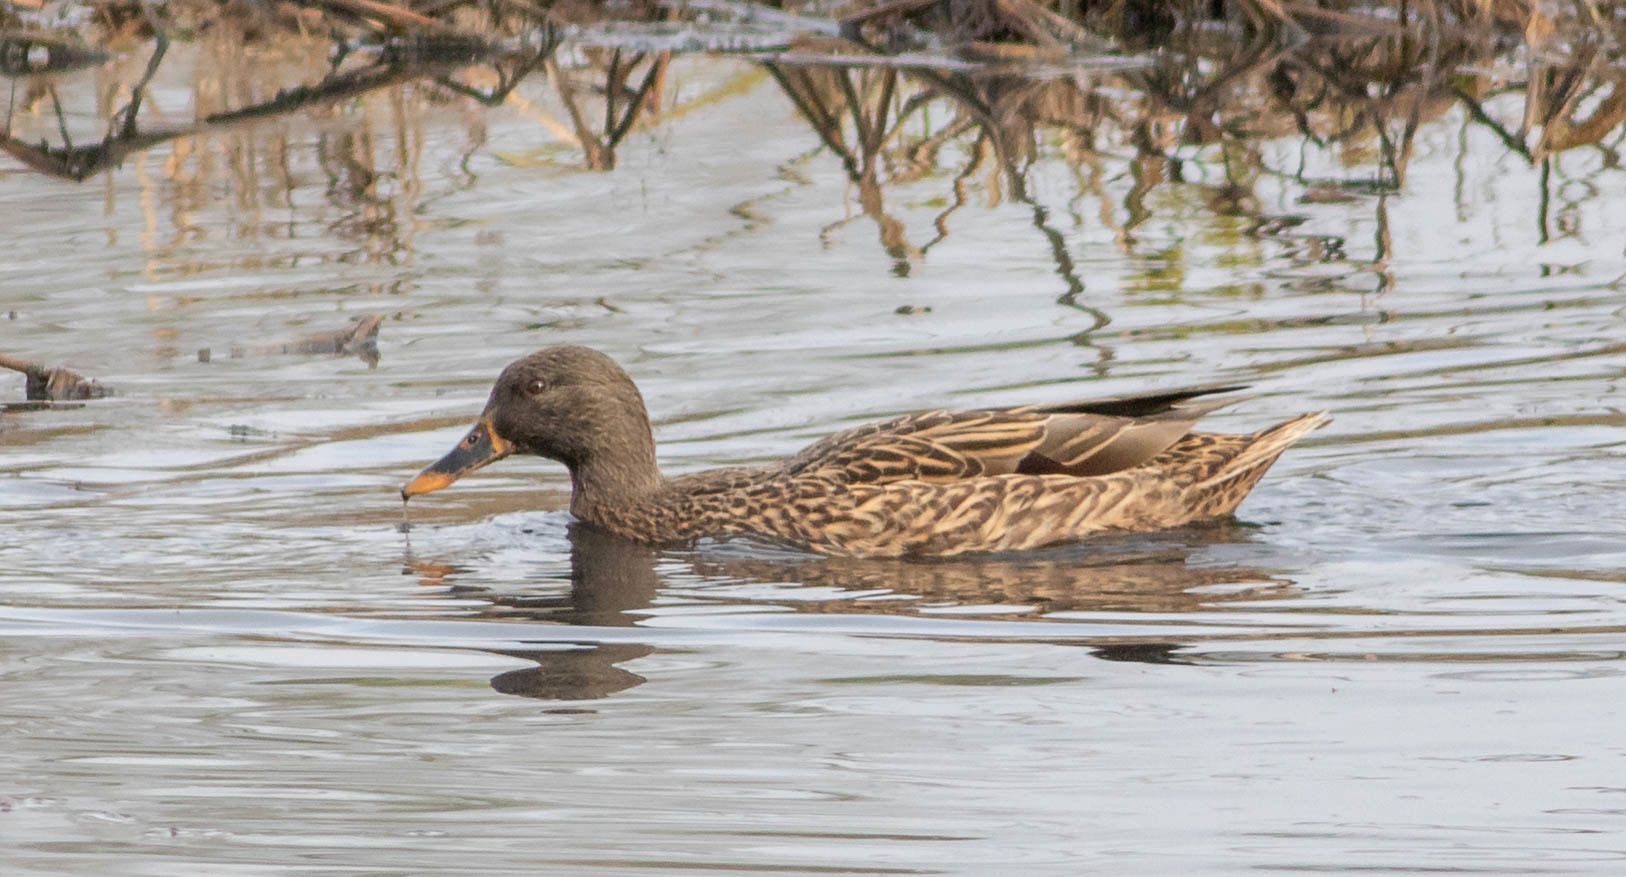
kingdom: Animalia
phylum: Chordata
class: Aves
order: Anseriformes
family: Anatidae
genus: Anas
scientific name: Anas platyrhynchos
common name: Mallard
